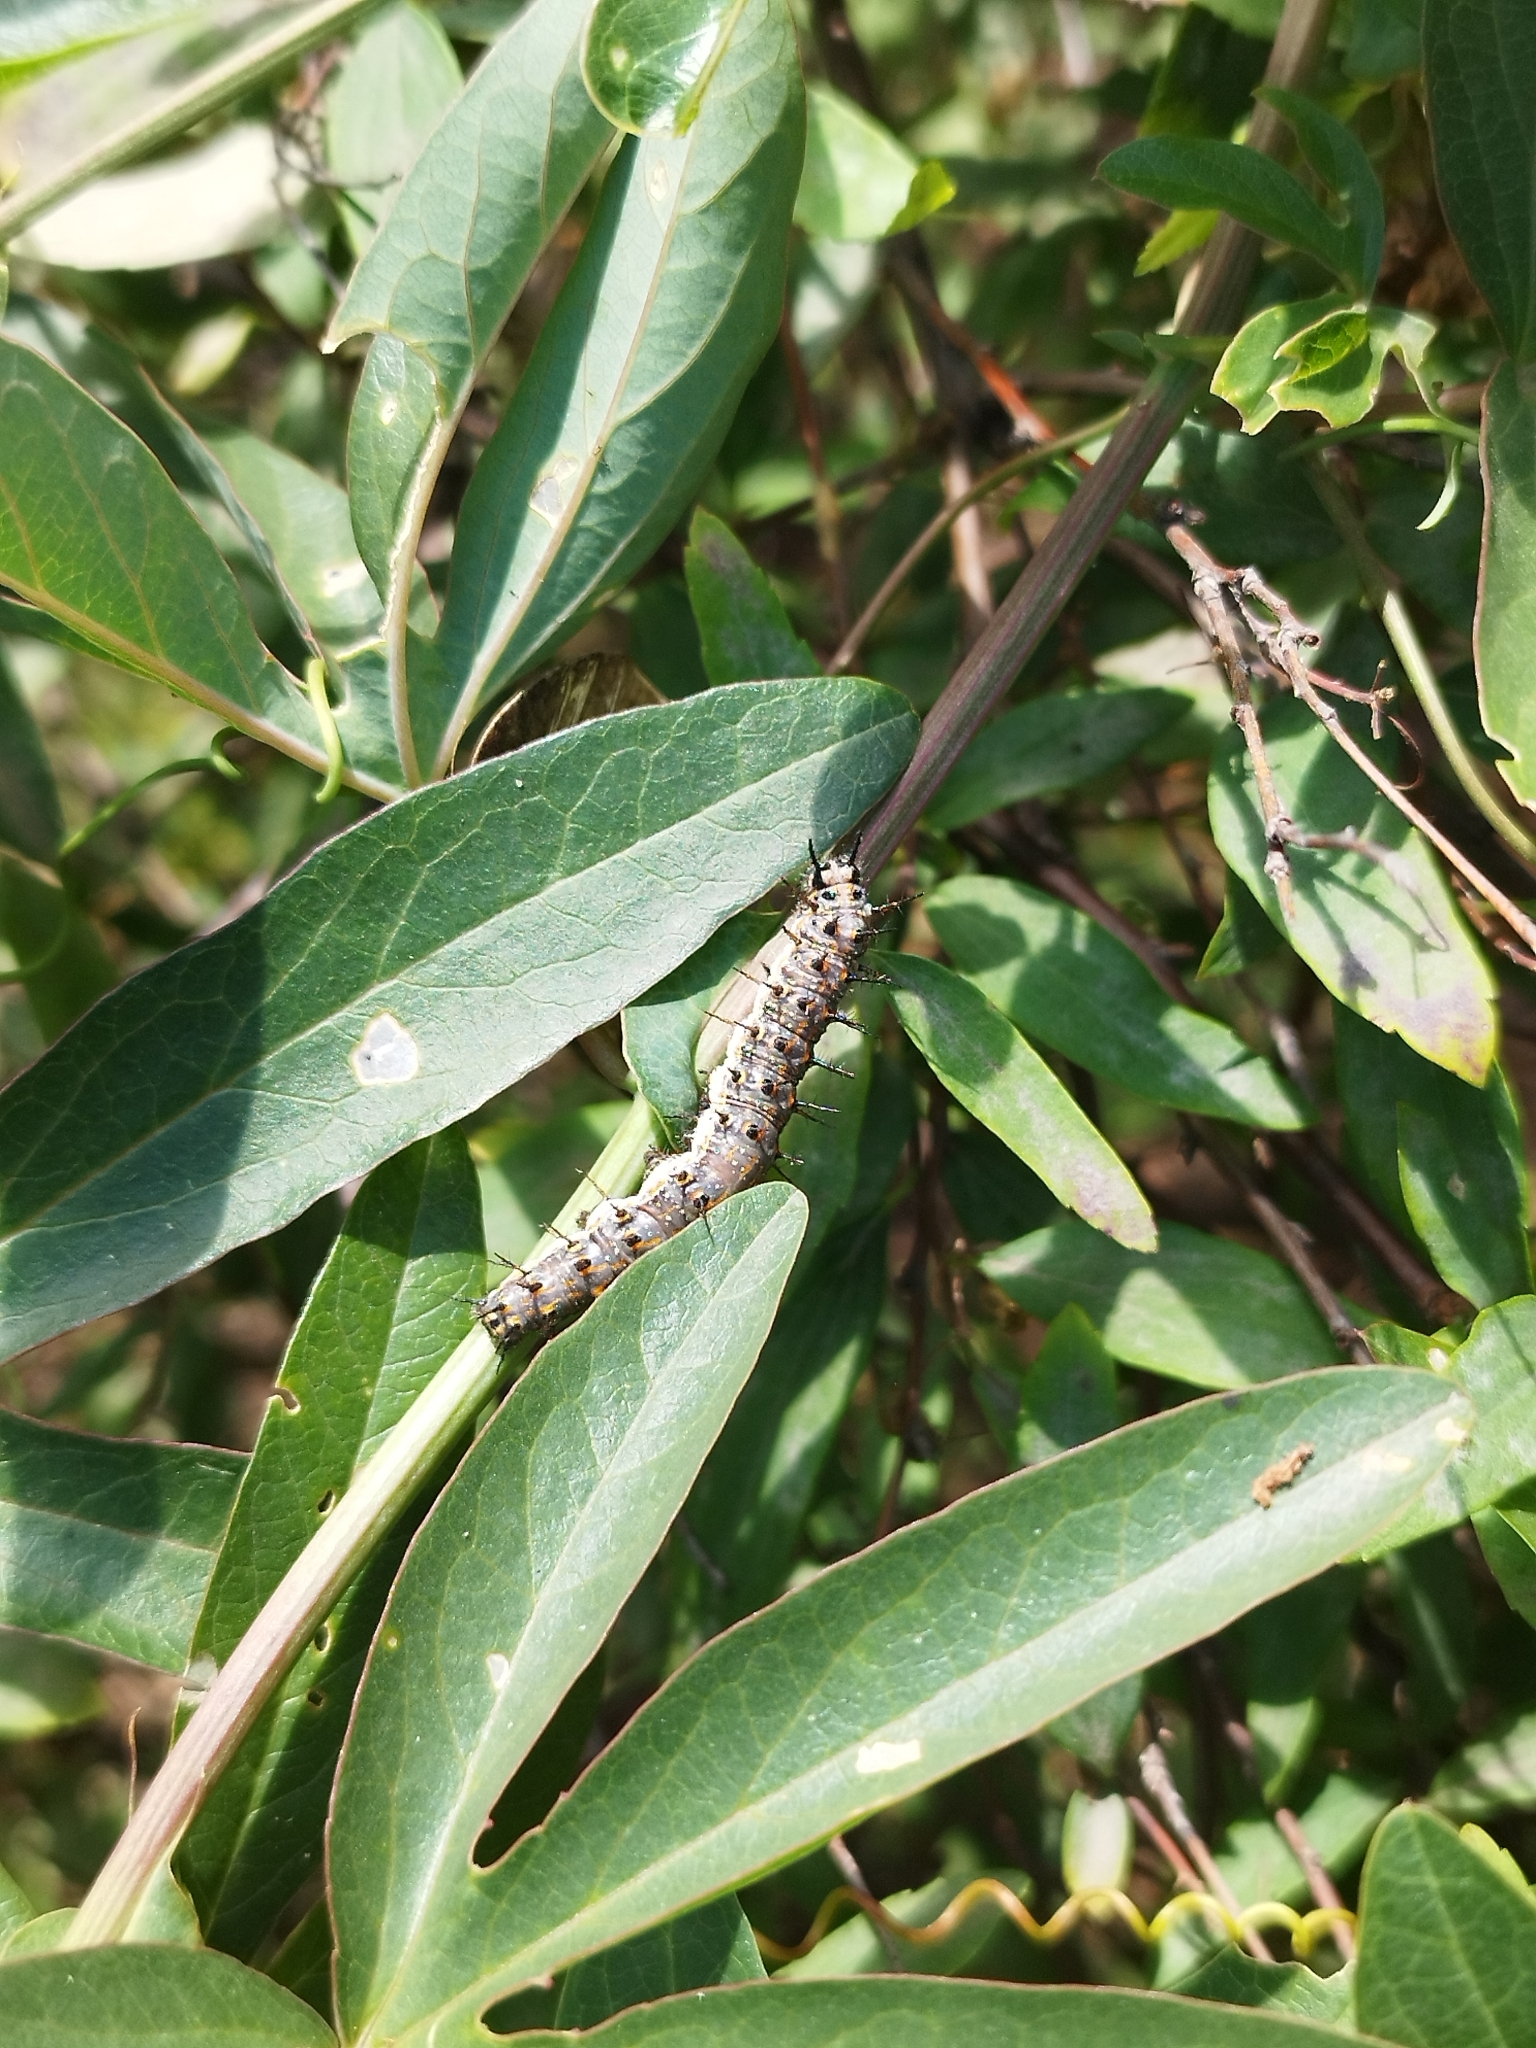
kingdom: Animalia
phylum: Arthropoda
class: Insecta
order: Lepidoptera
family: Nymphalidae
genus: Dione
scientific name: Dione vanillae
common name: Gulf fritillary
